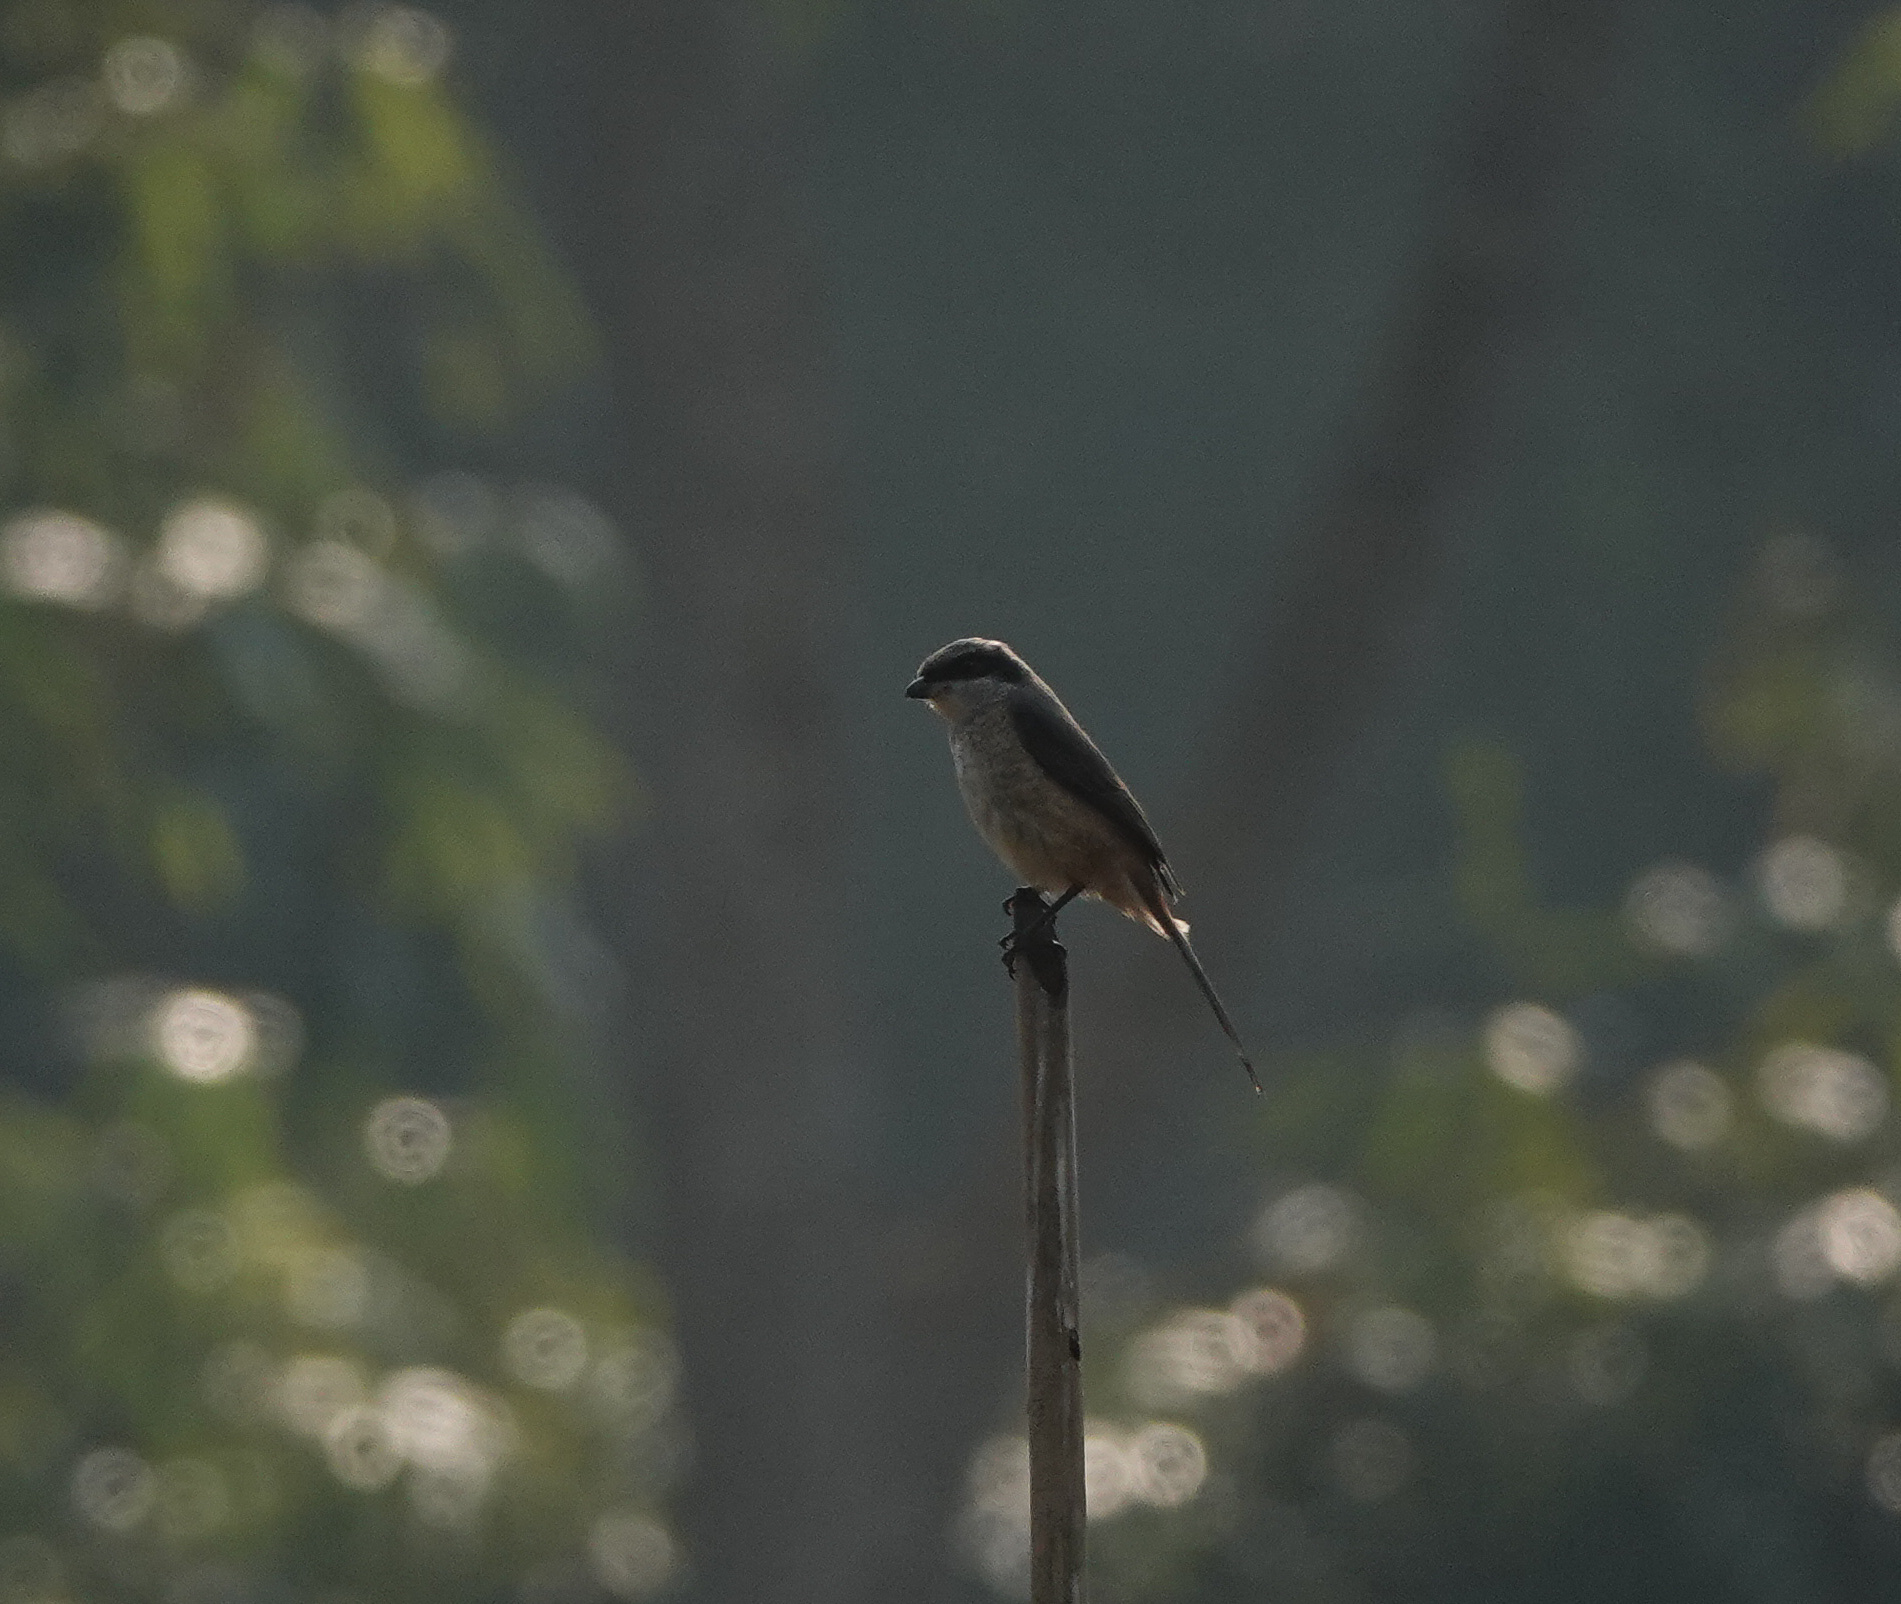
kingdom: Animalia
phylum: Chordata
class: Aves
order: Passeriformes
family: Laniidae
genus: Lanius
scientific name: Lanius cristatus
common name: Brown shrike
